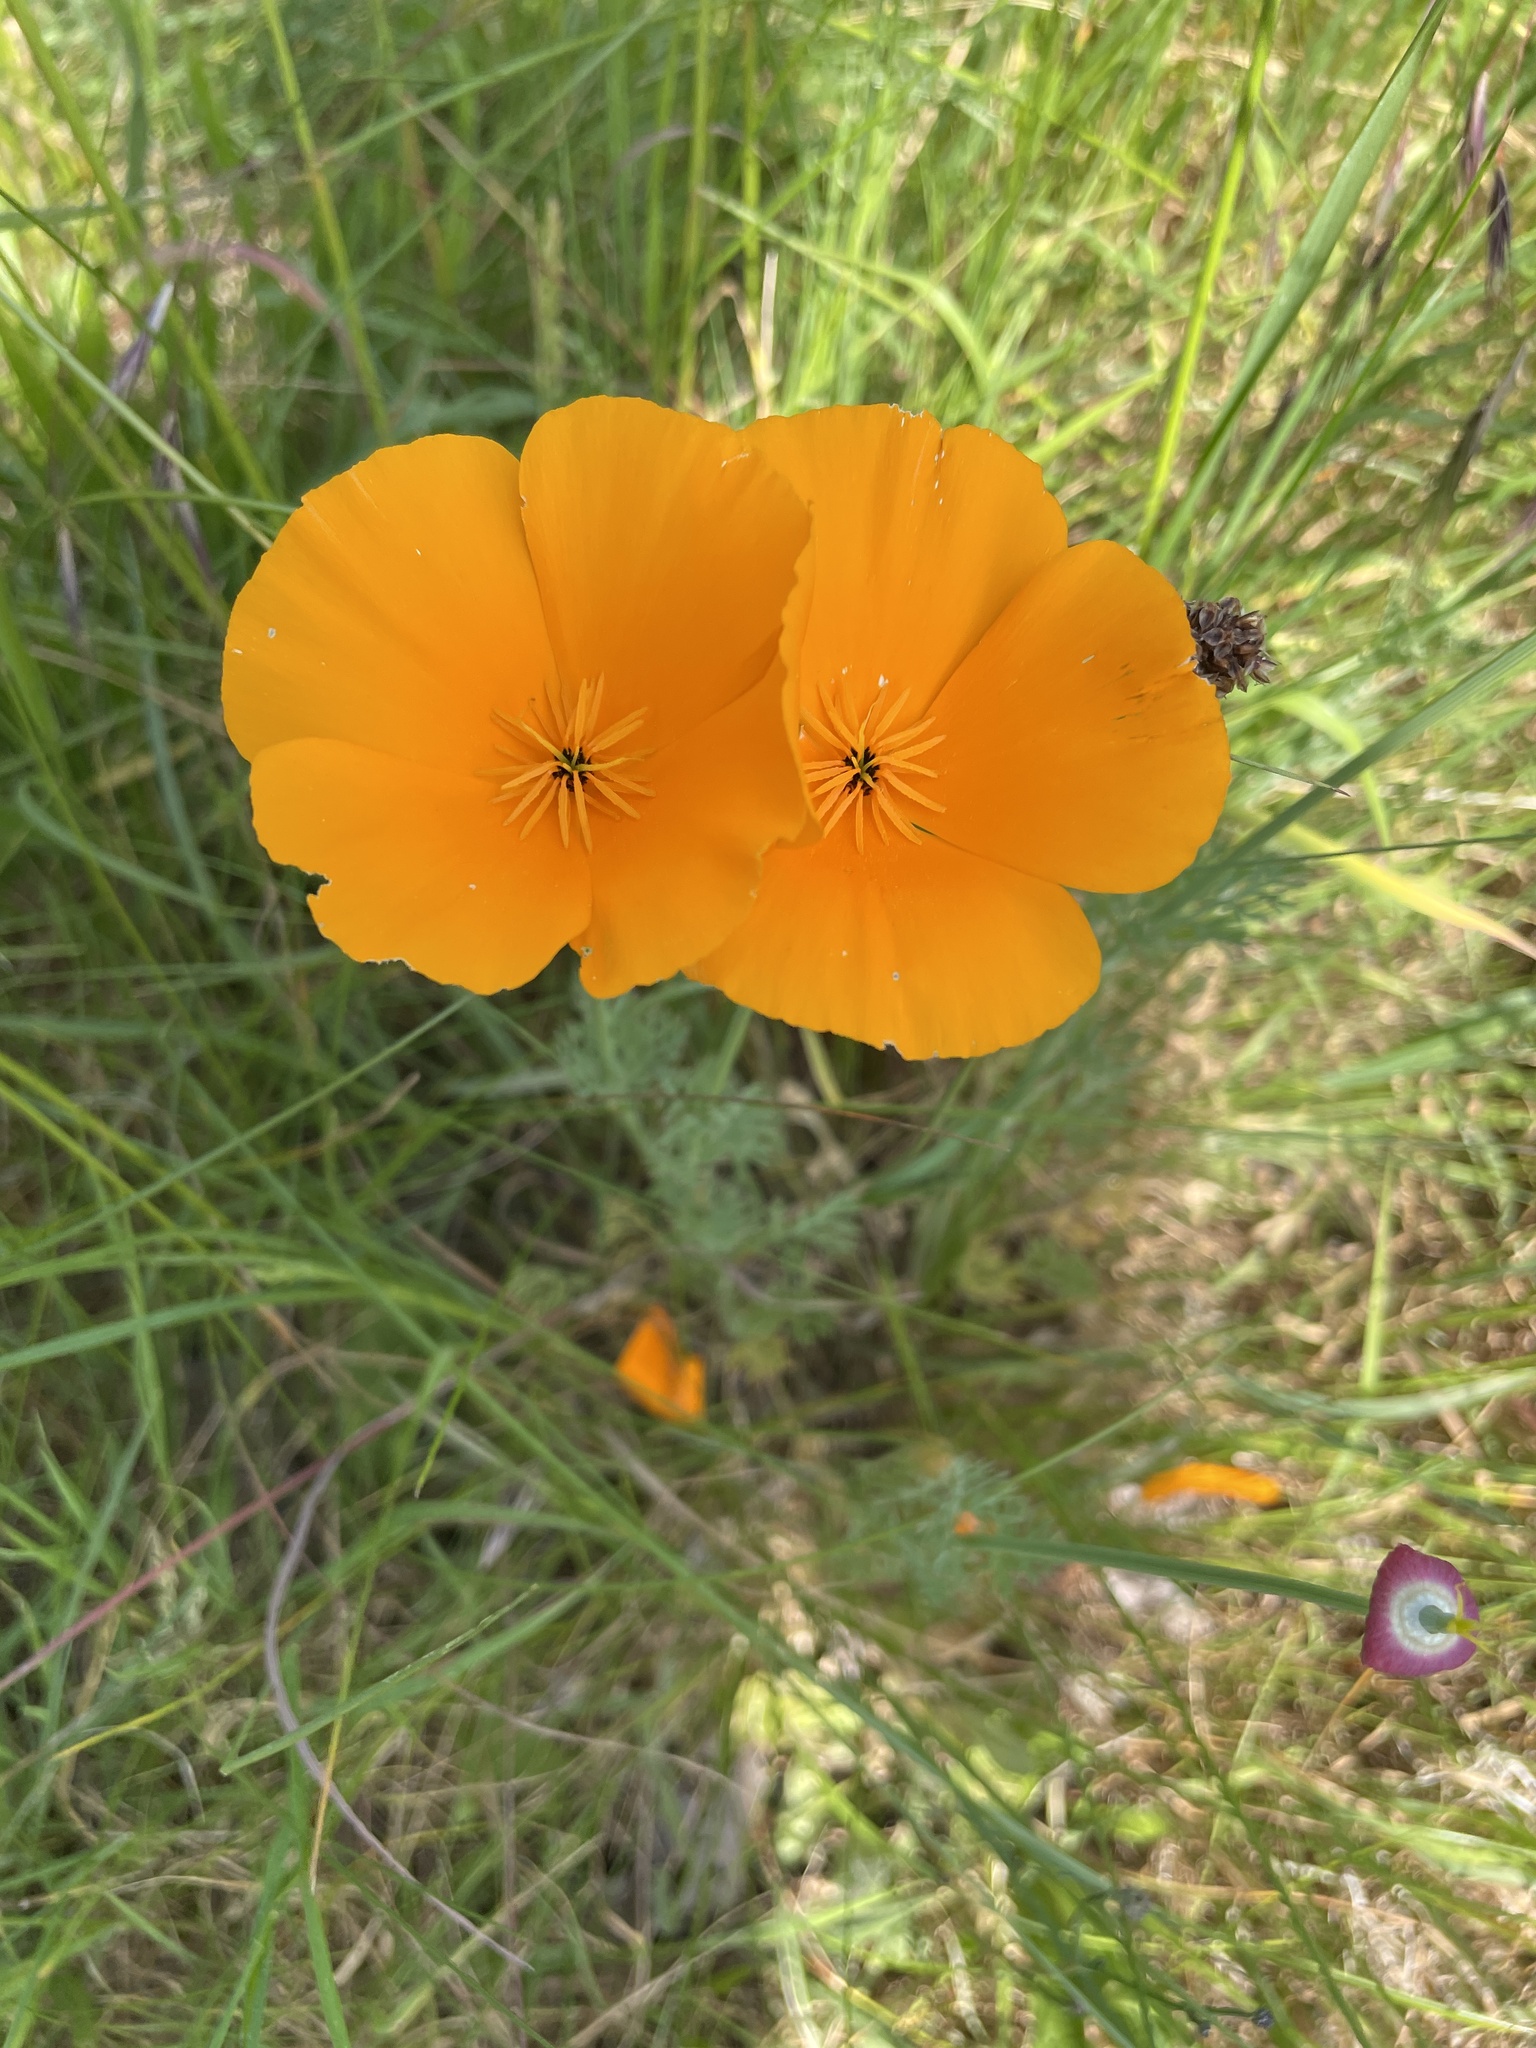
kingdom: Plantae
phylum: Tracheophyta
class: Magnoliopsida
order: Ranunculales
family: Papaveraceae
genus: Eschscholzia
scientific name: Eschscholzia californica
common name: California poppy
